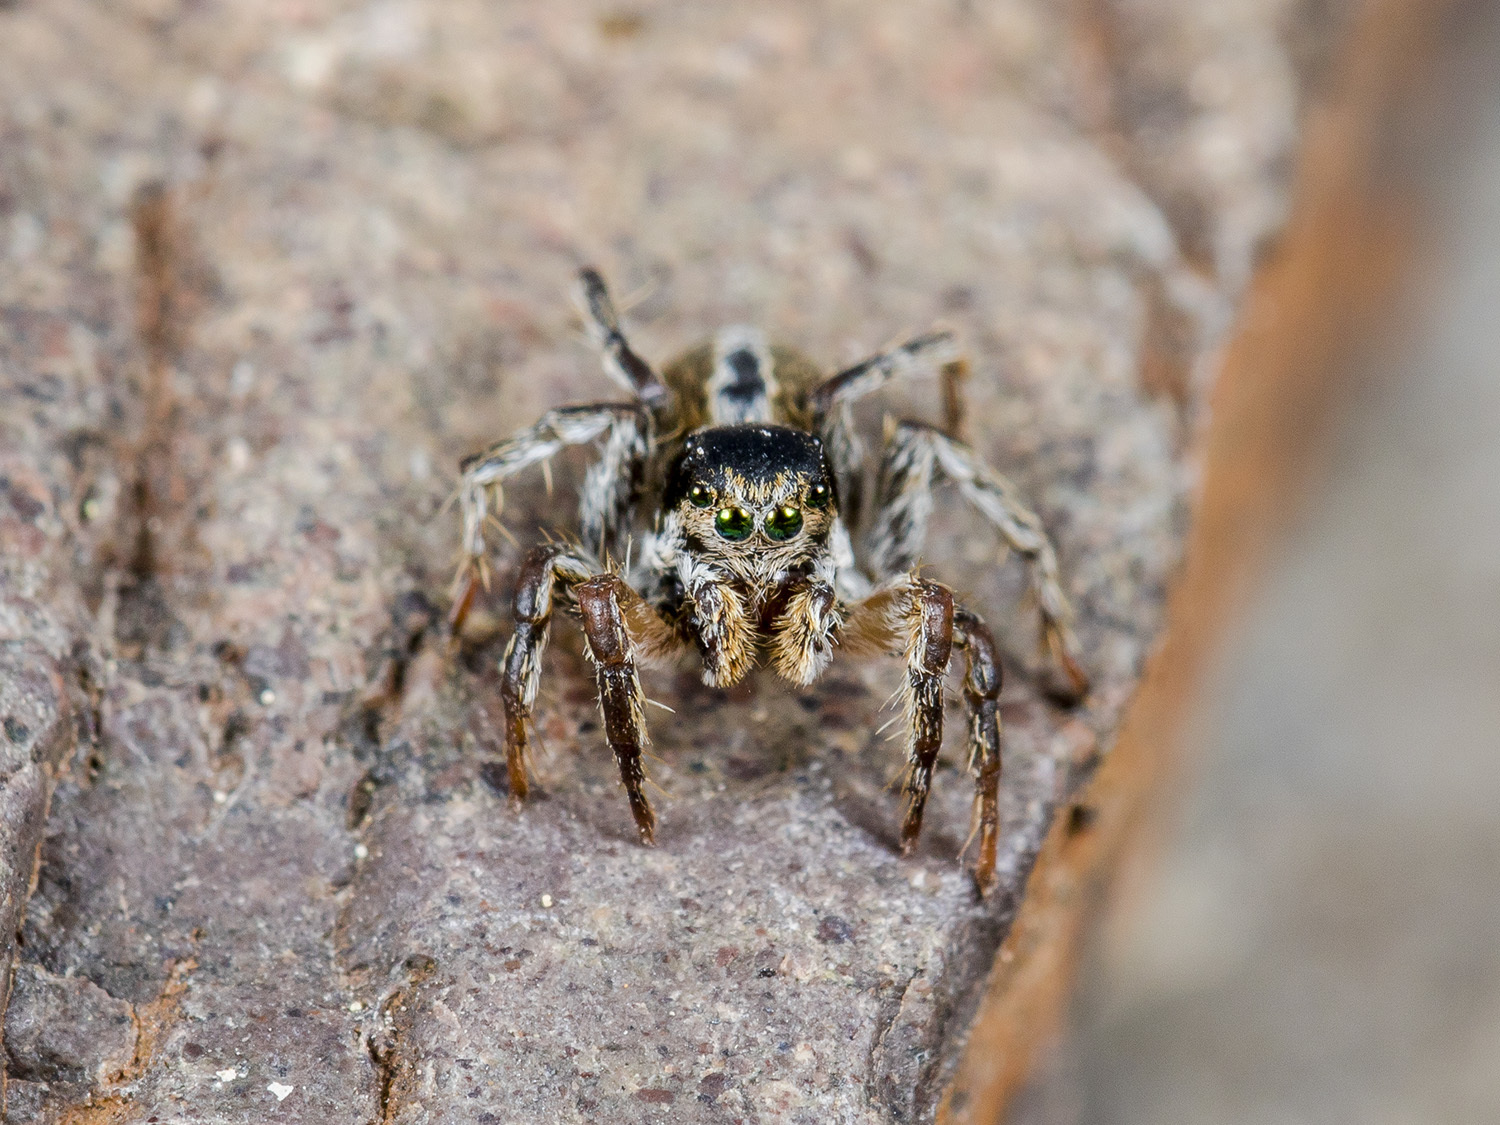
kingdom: Animalia
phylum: Arthropoda
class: Arachnida
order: Araneae
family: Salticidae
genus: Aelurillus
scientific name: Aelurillus nenilini
